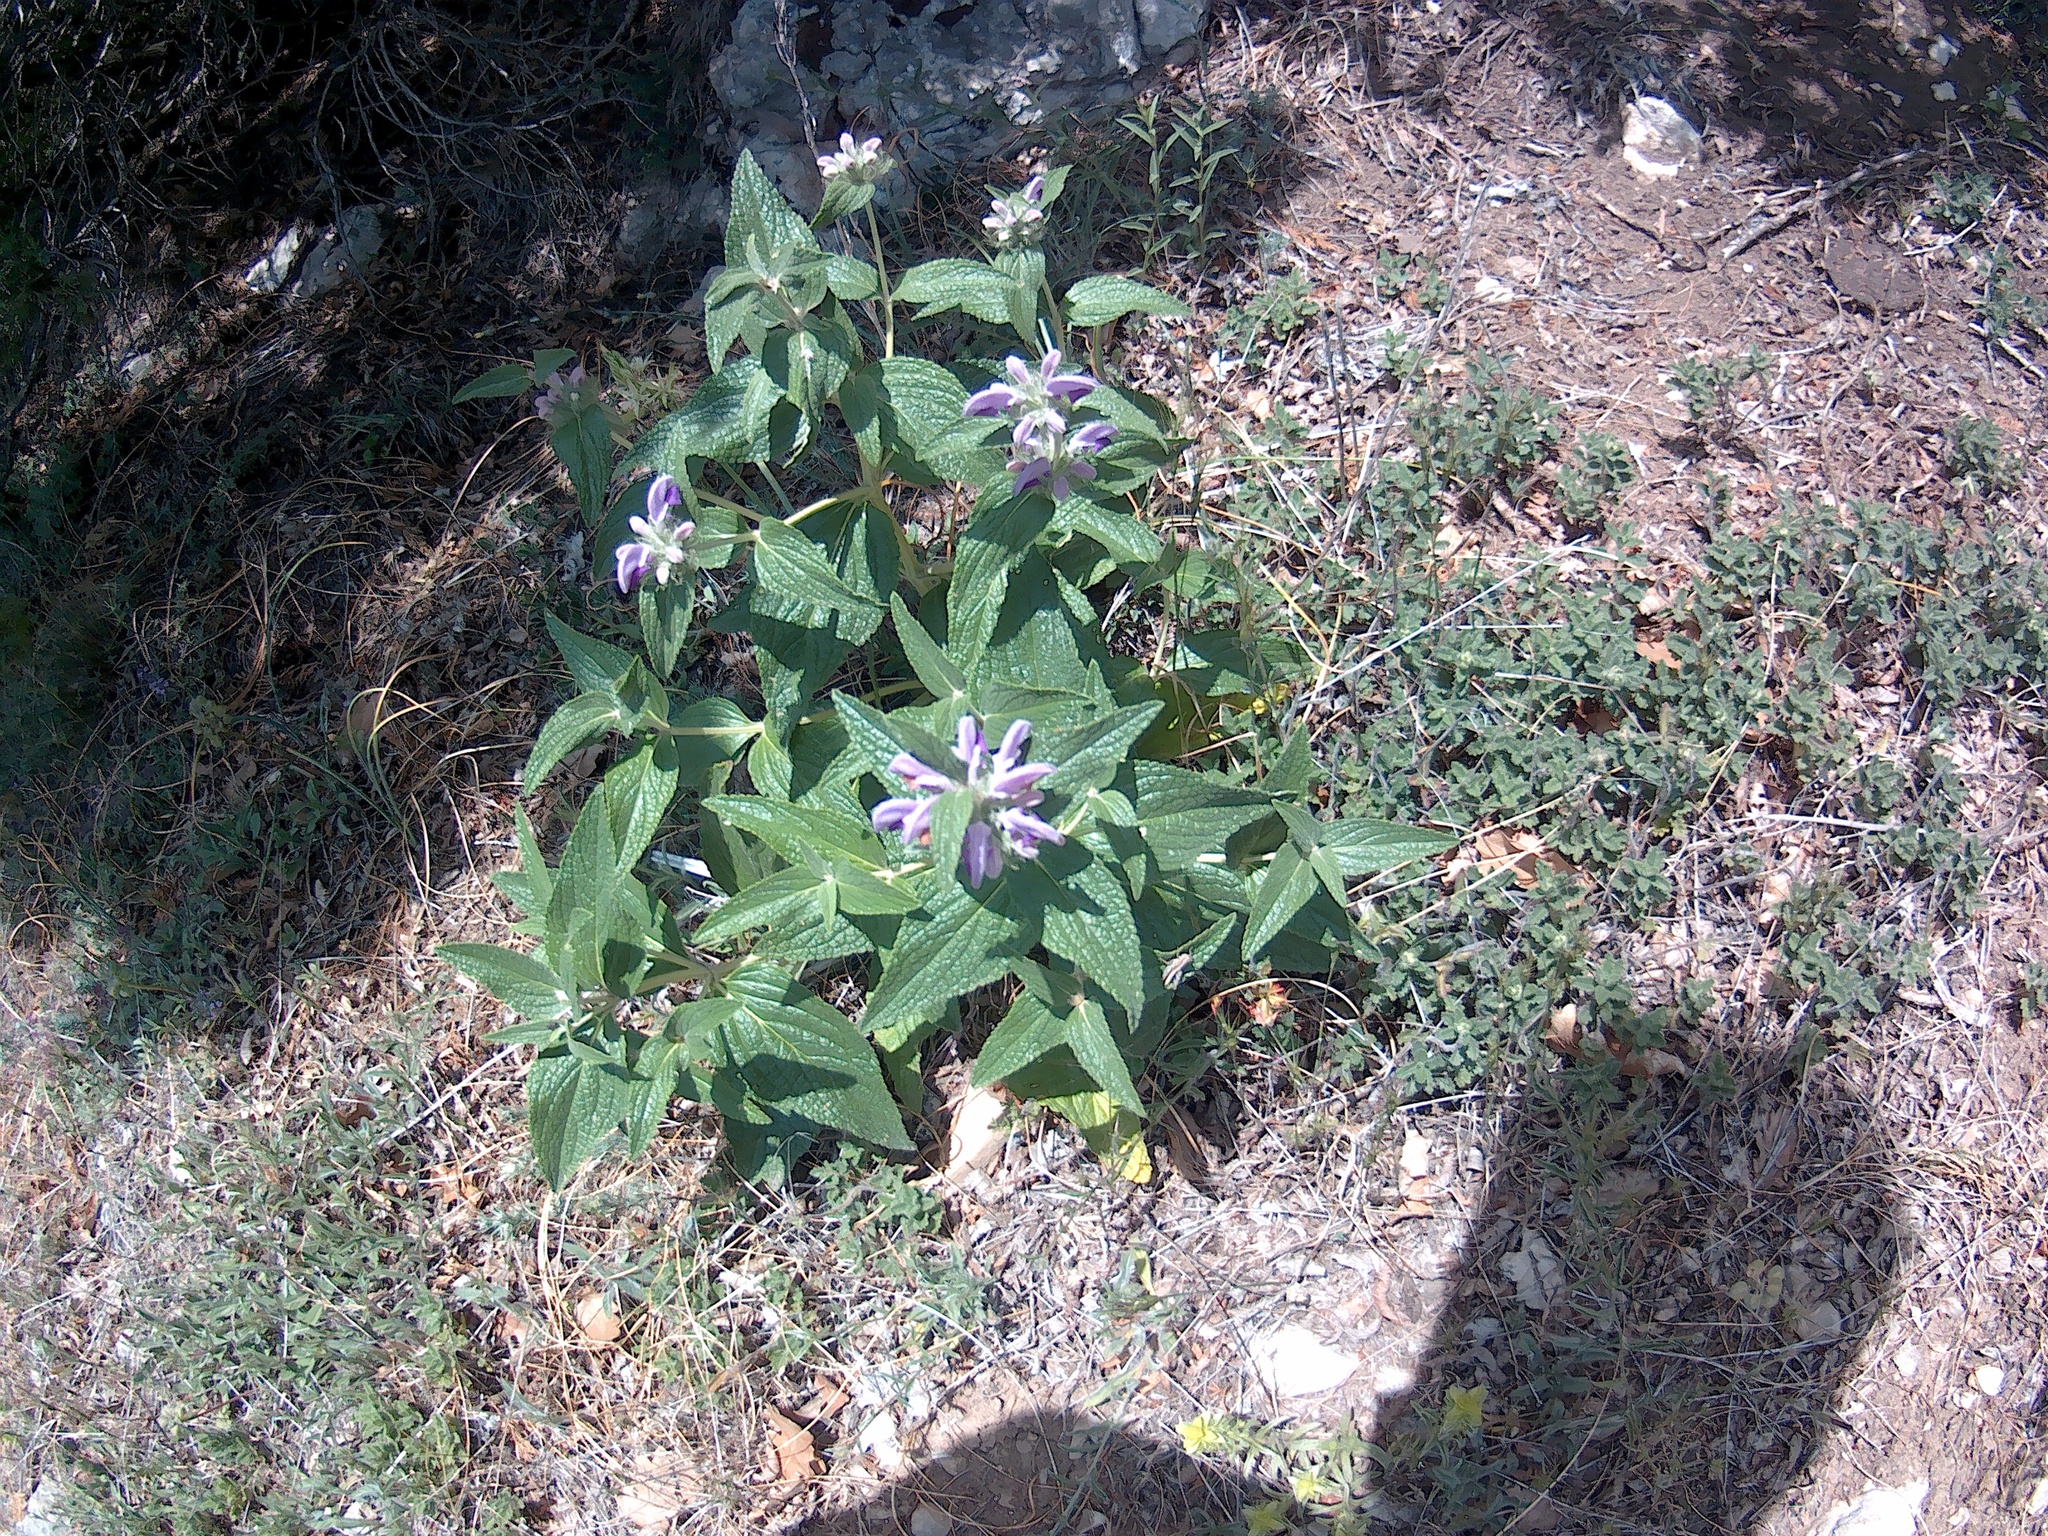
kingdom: Plantae
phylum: Tracheophyta
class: Magnoliopsida
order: Lamiales
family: Lamiaceae
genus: Phlomis
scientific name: Phlomis herba-venti
